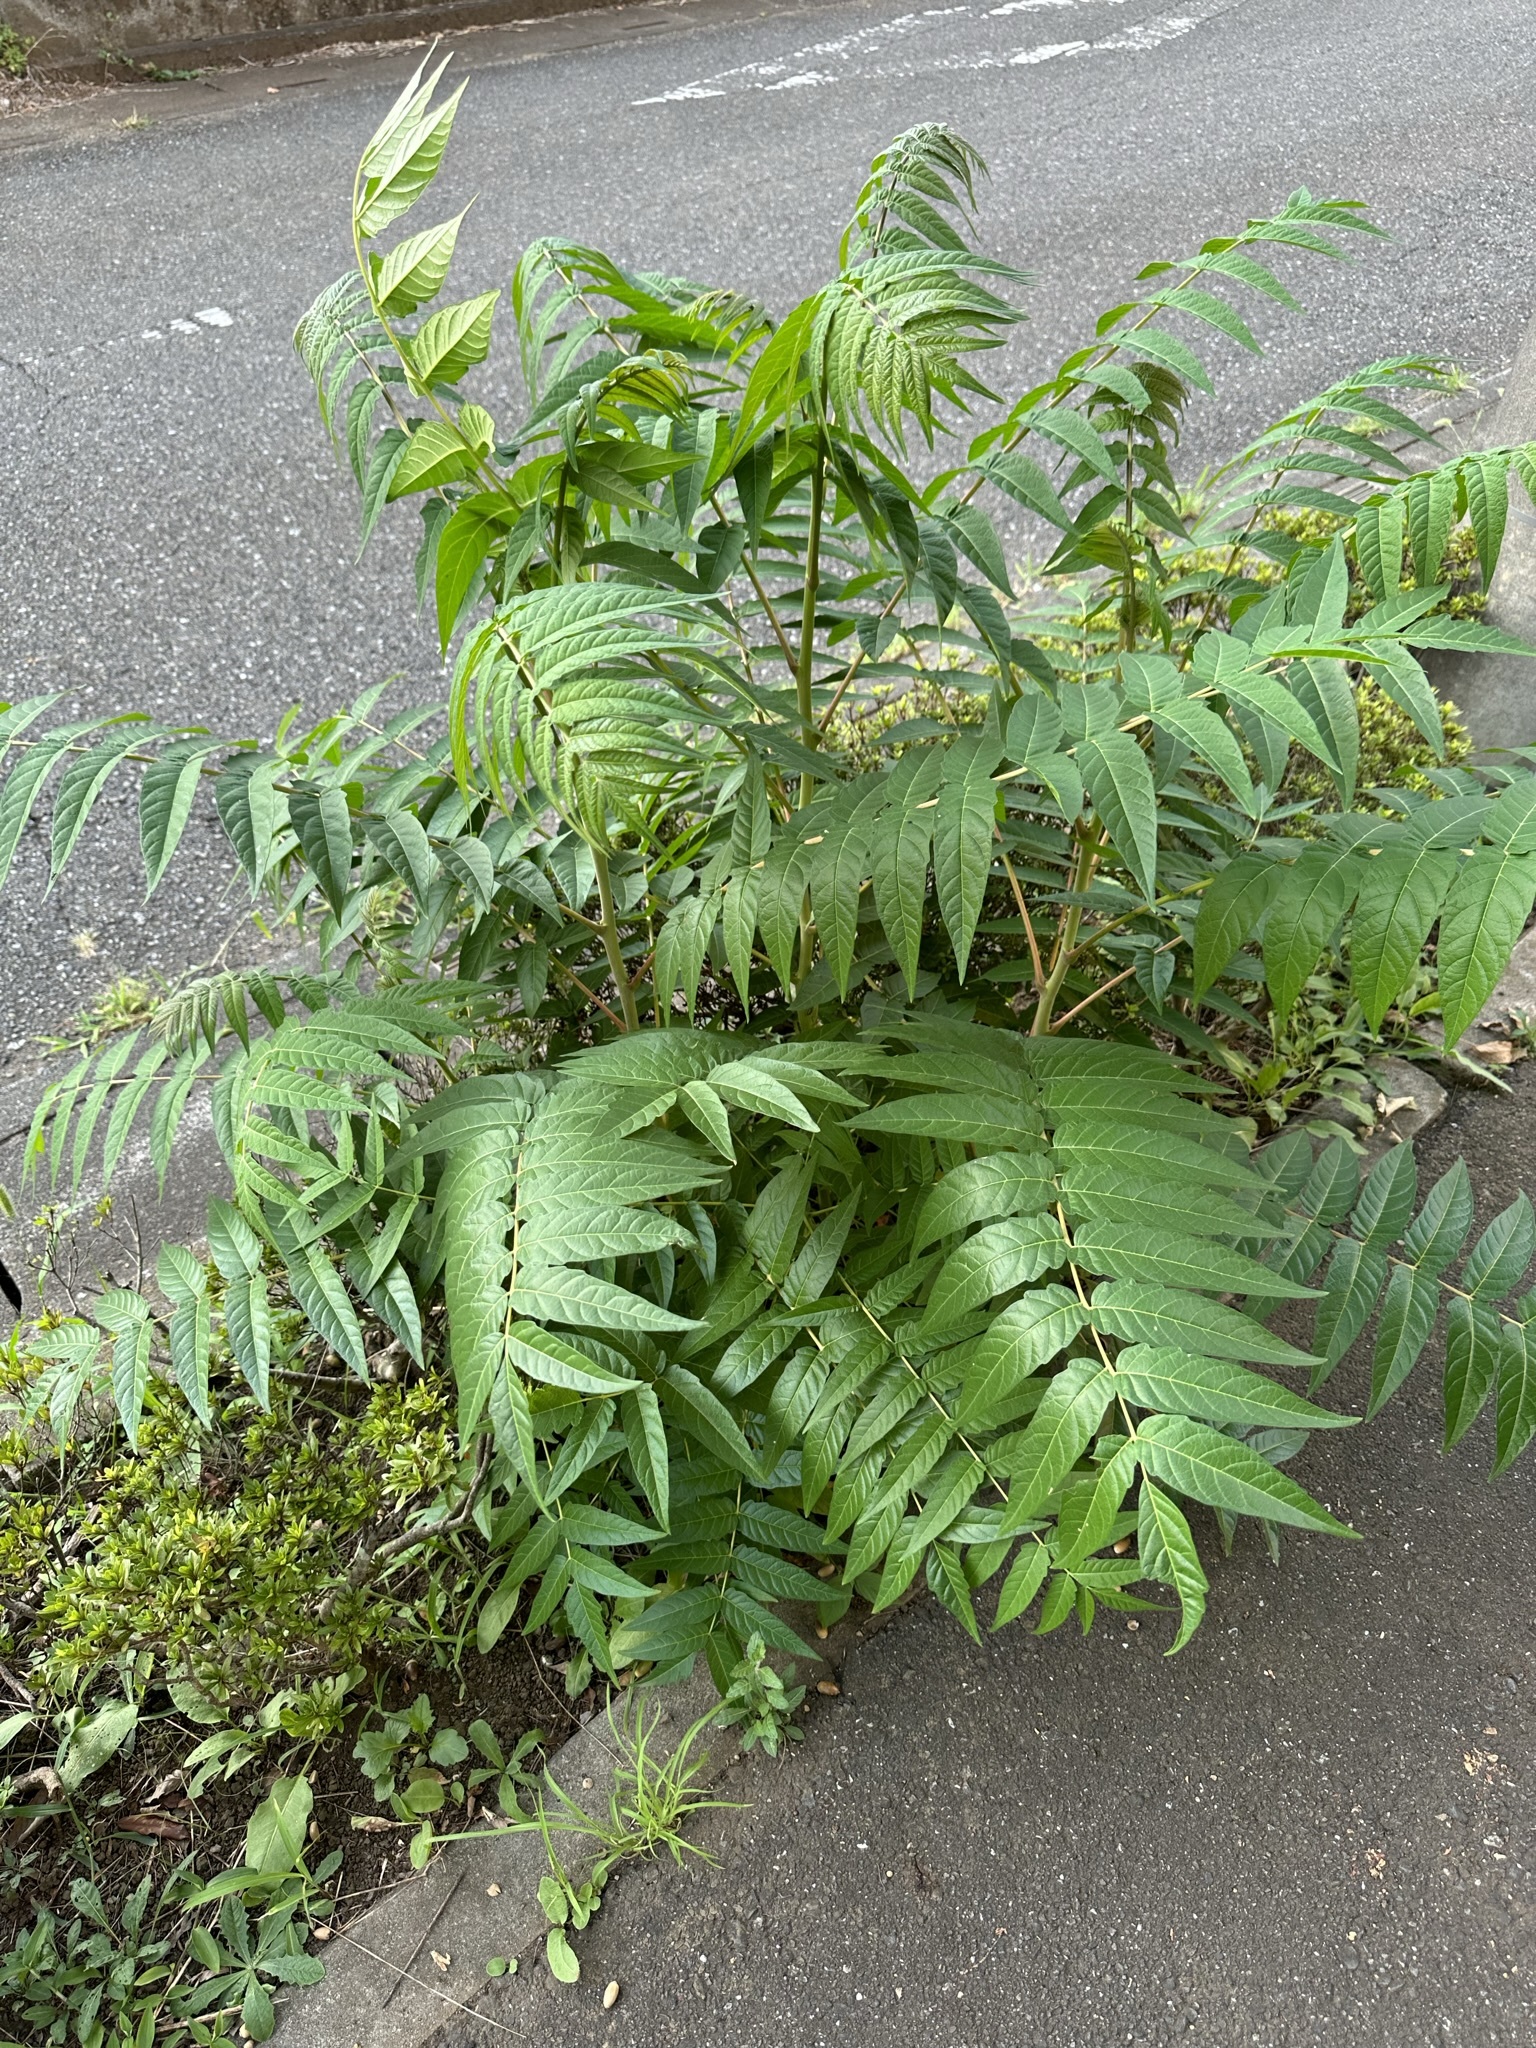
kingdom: Plantae
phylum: Tracheophyta
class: Magnoliopsida
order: Sapindales
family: Simaroubaceae
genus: Ailanthus
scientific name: Ailanthus altissima
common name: Tree-of-heaven
